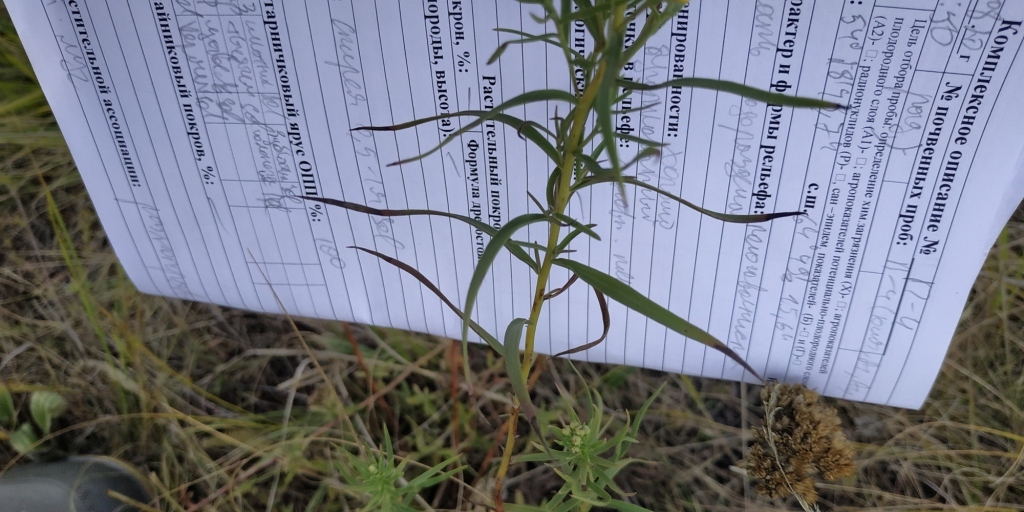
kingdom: Plantae
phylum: Tracheophyta
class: Magnoliopsida
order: Asterales
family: Asteraceae
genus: Galatella
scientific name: Galatella biflora
